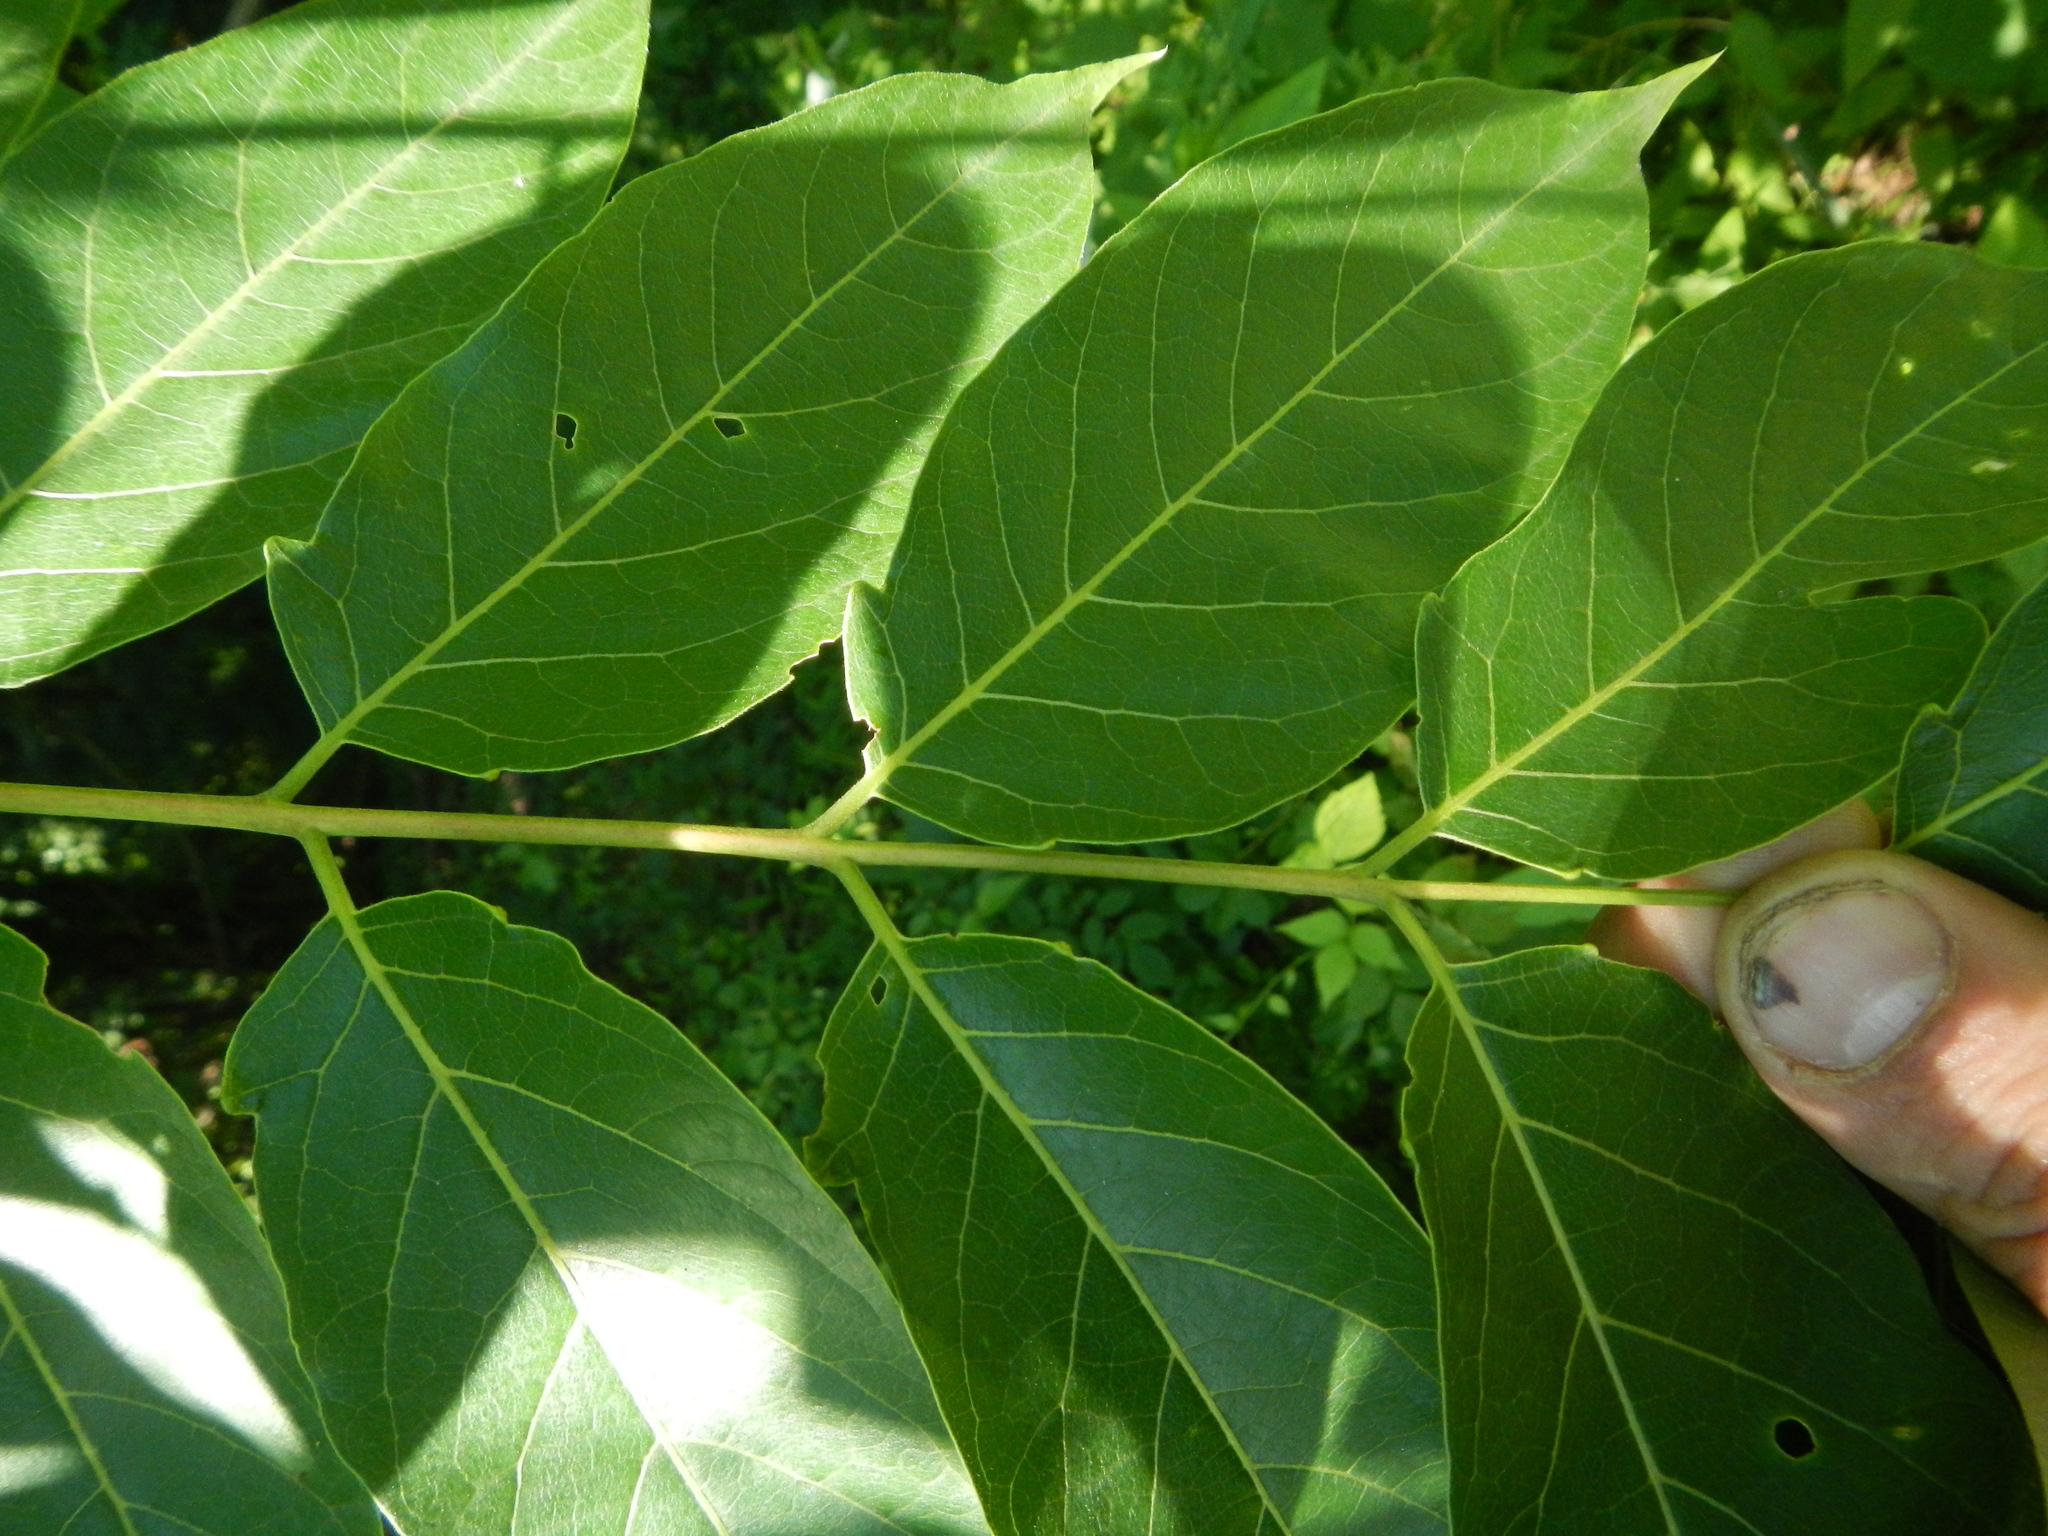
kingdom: Plantae
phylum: Tracheophyta
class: Magnoliopsida
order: Sapindales
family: Simaroubaceae
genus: Ailanthus
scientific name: Ailanthus altissima
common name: Tree-of-heaven
